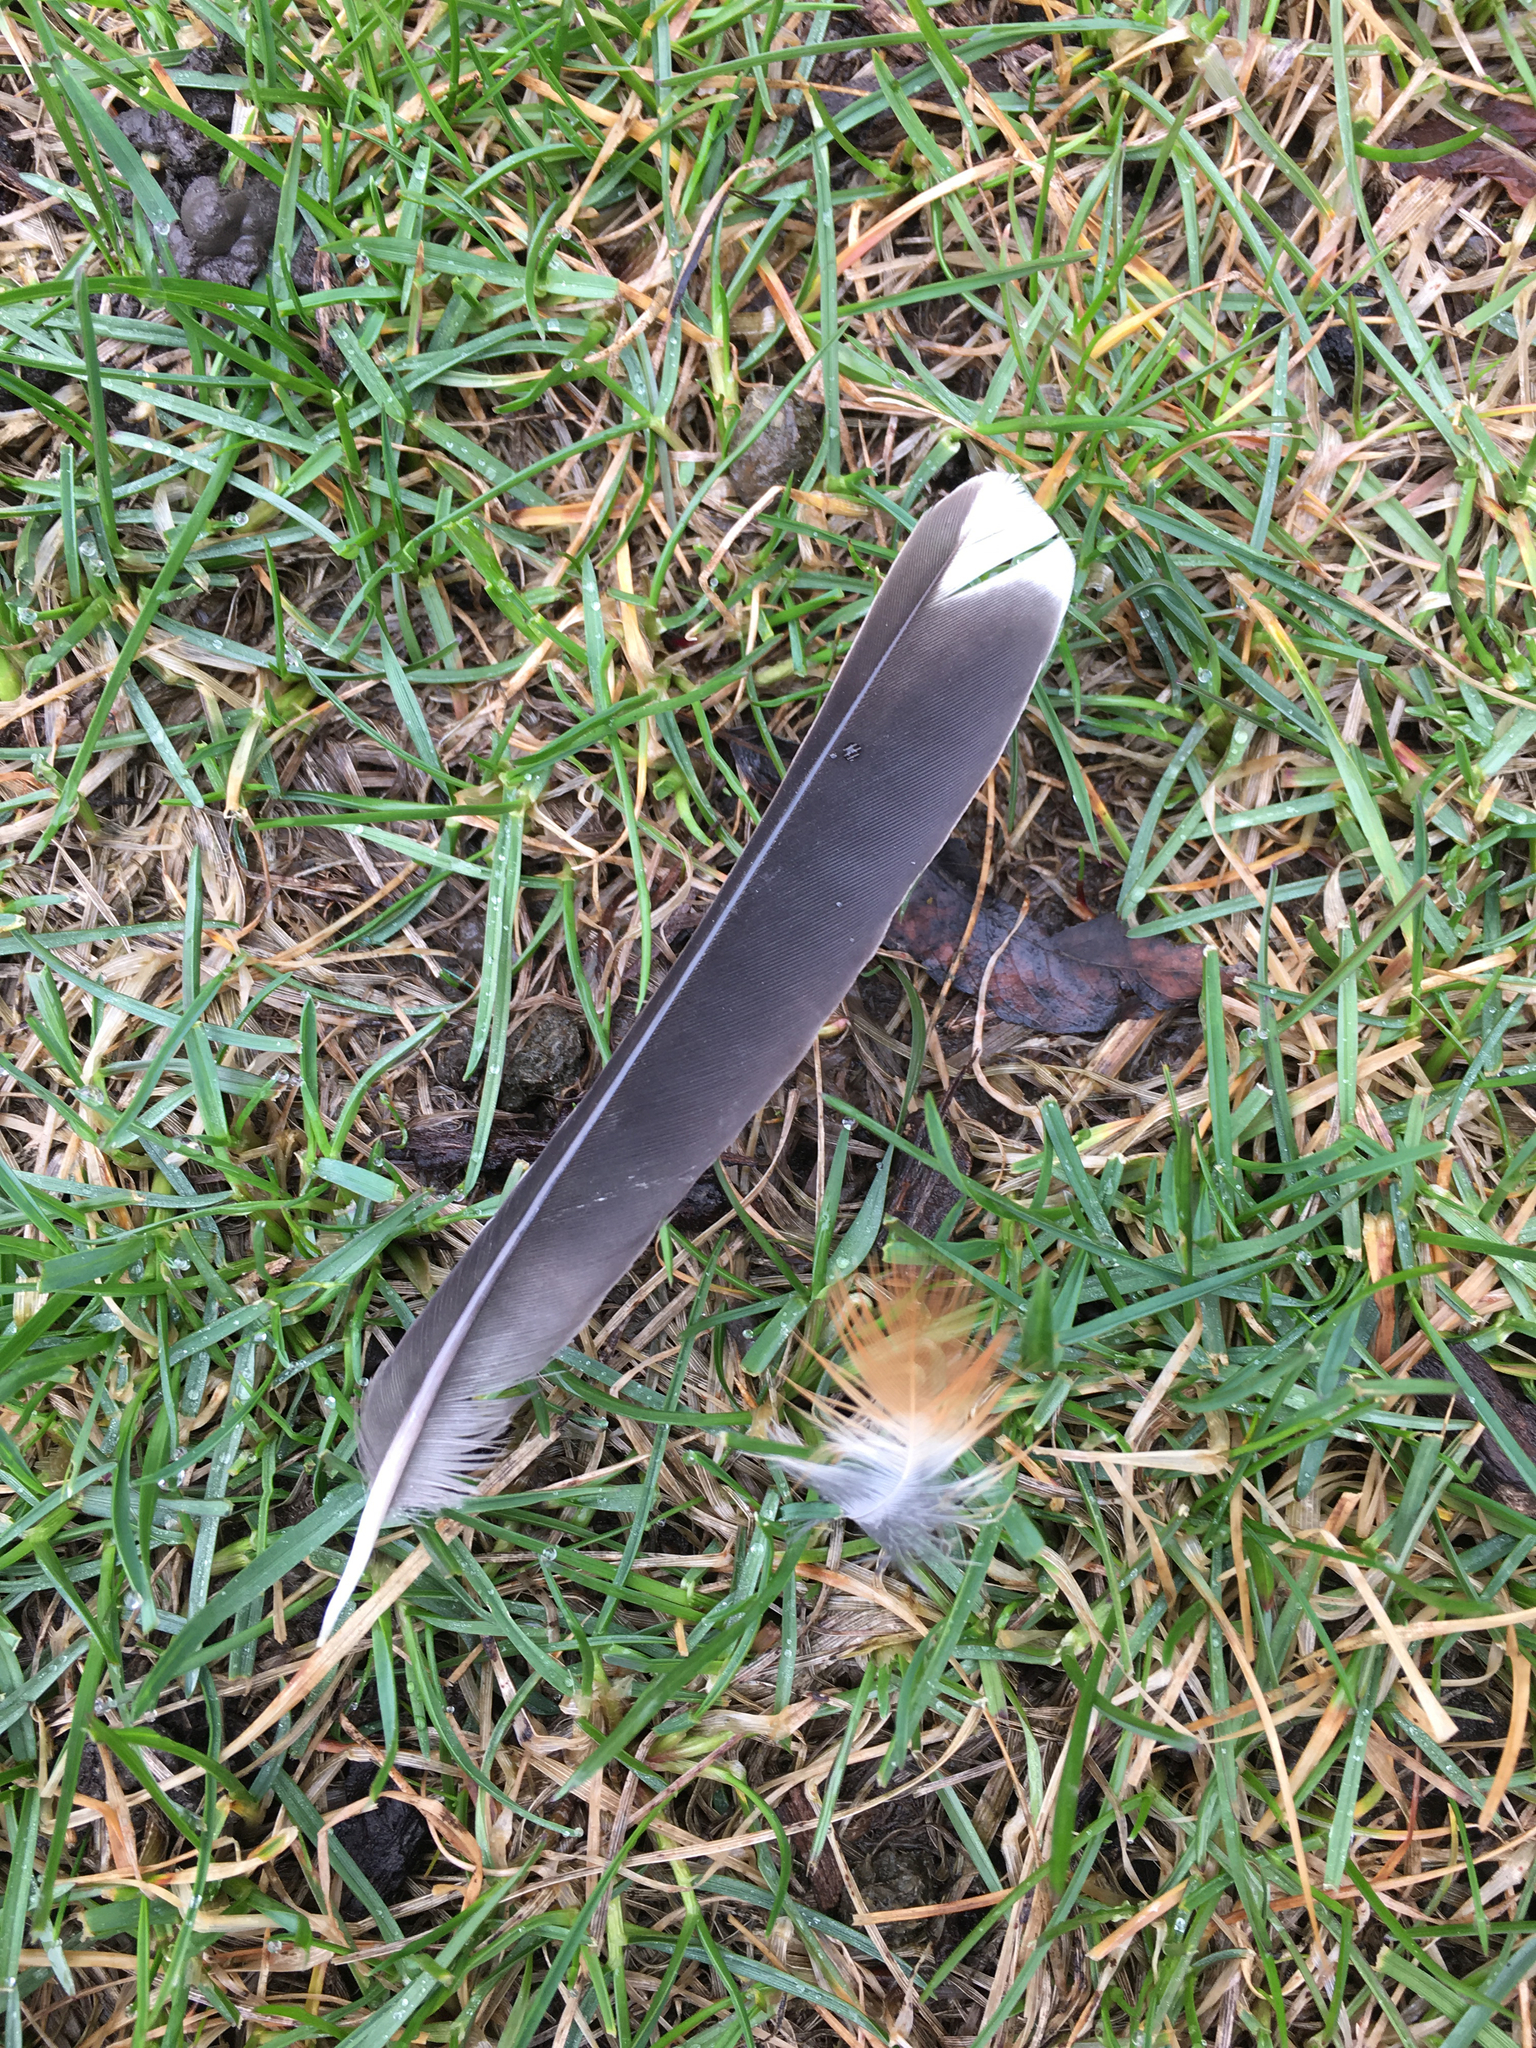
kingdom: Animalia
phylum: Chordata
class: Aves
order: Passeriformes
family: Turdidae
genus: Turdus
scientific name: Turdus migratorius
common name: American robin
